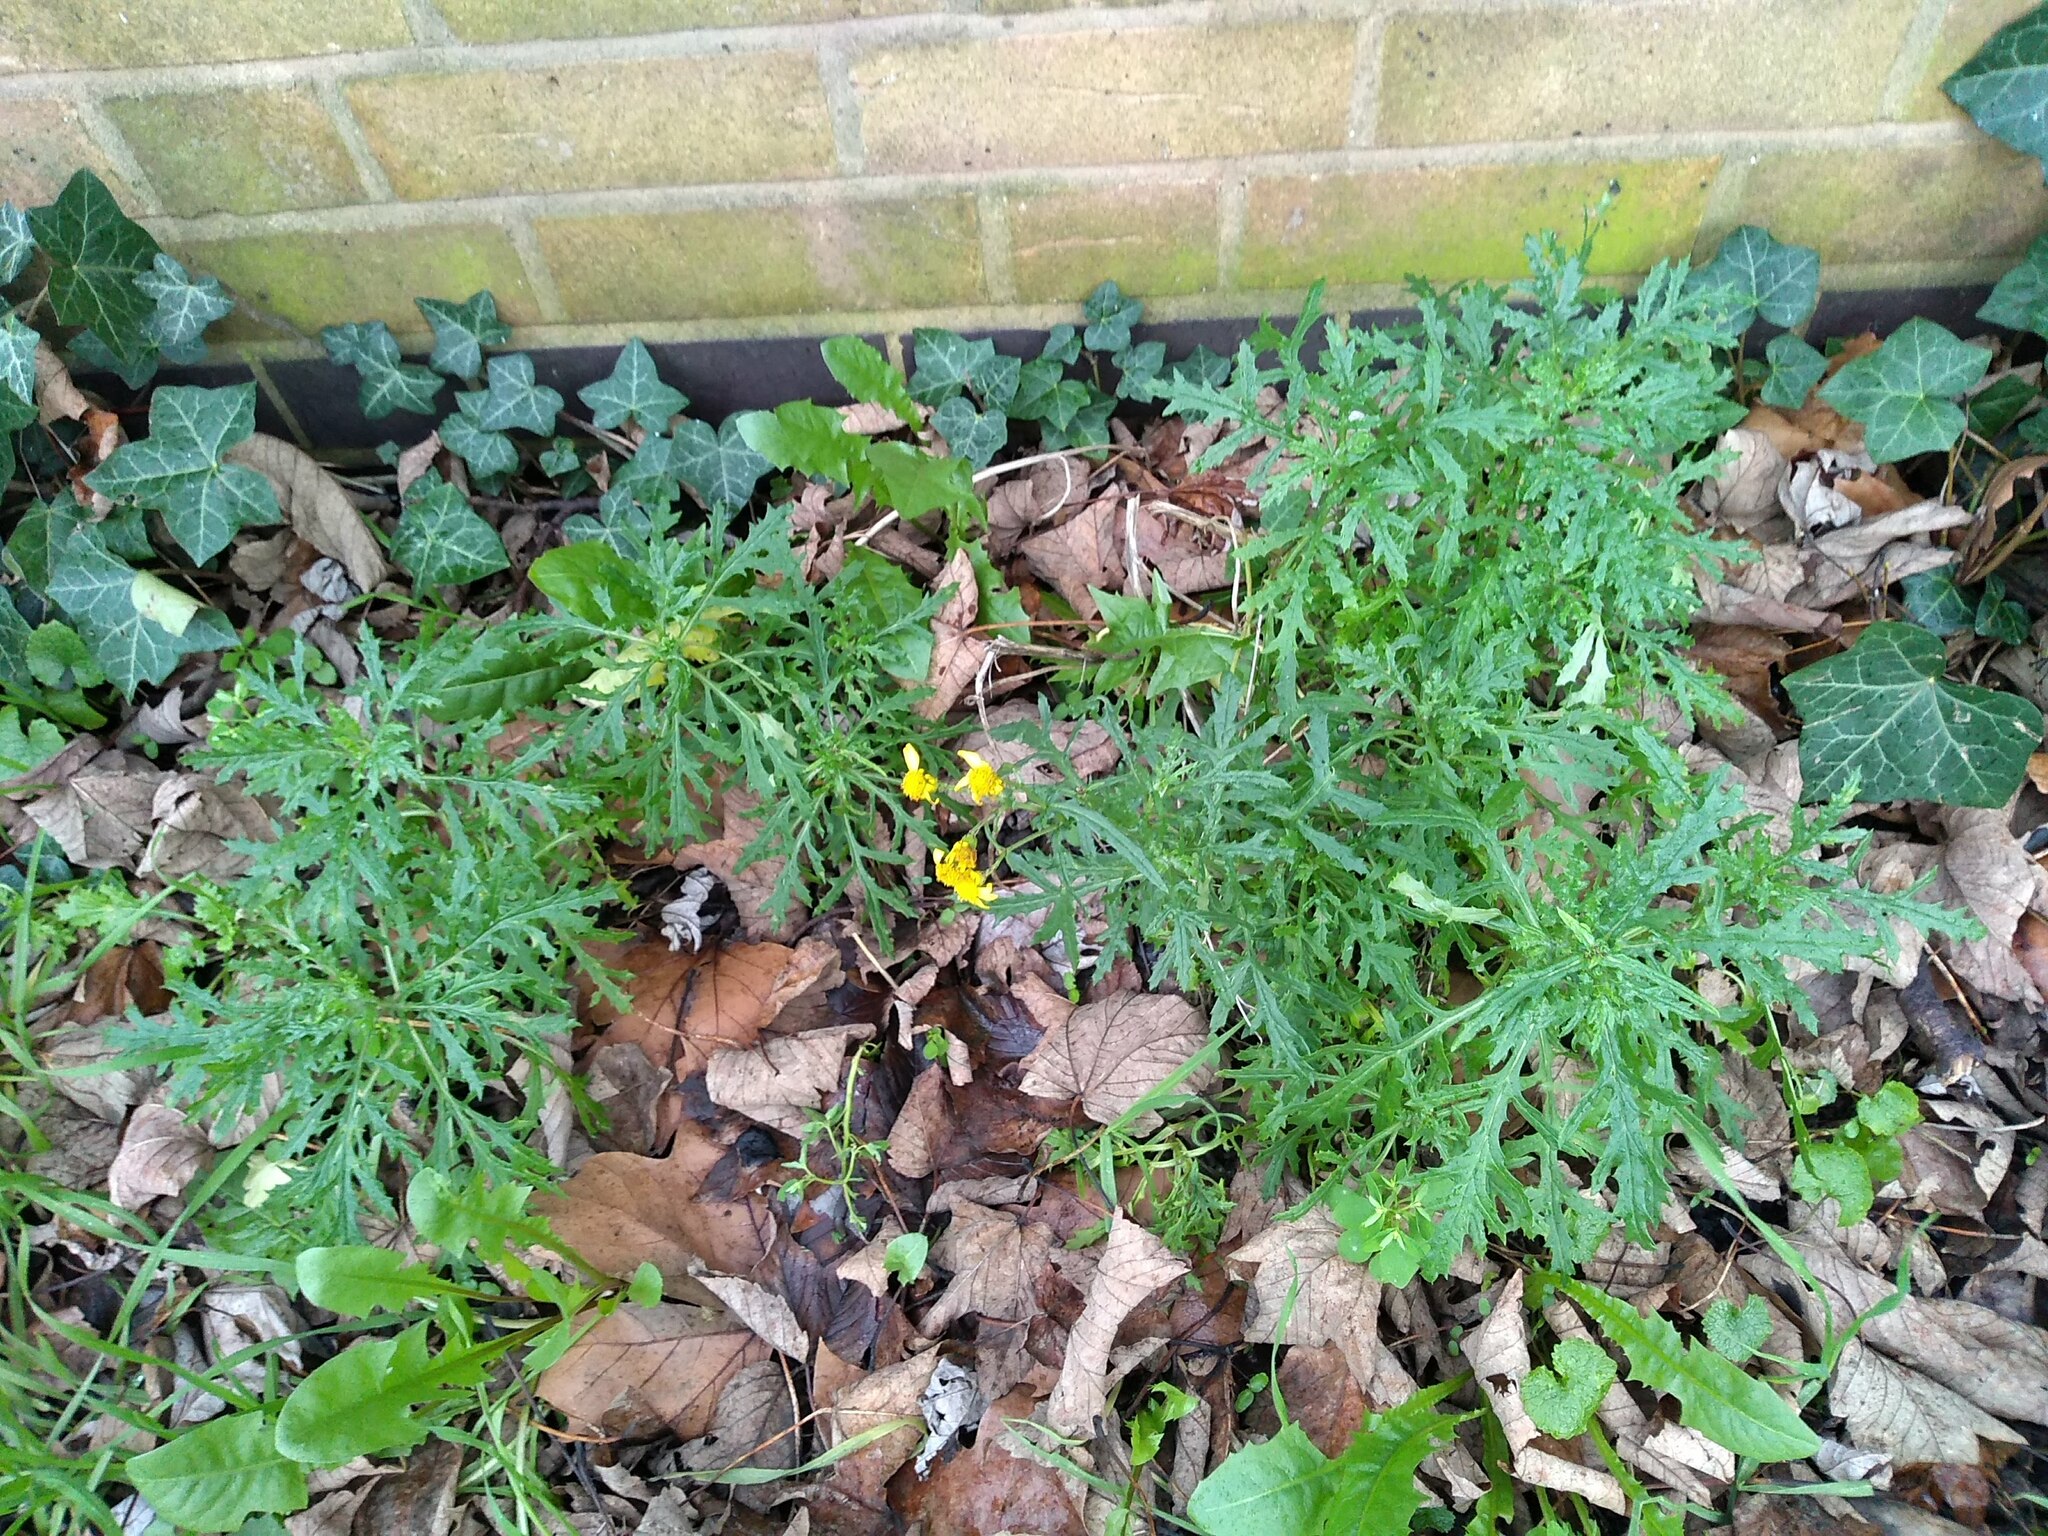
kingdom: Plantae
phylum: Tracheophyta
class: Magnoliopsida
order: Asterales
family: Asteraceae
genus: Senecio
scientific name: Senecio squalidus
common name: Oxford ragwort
